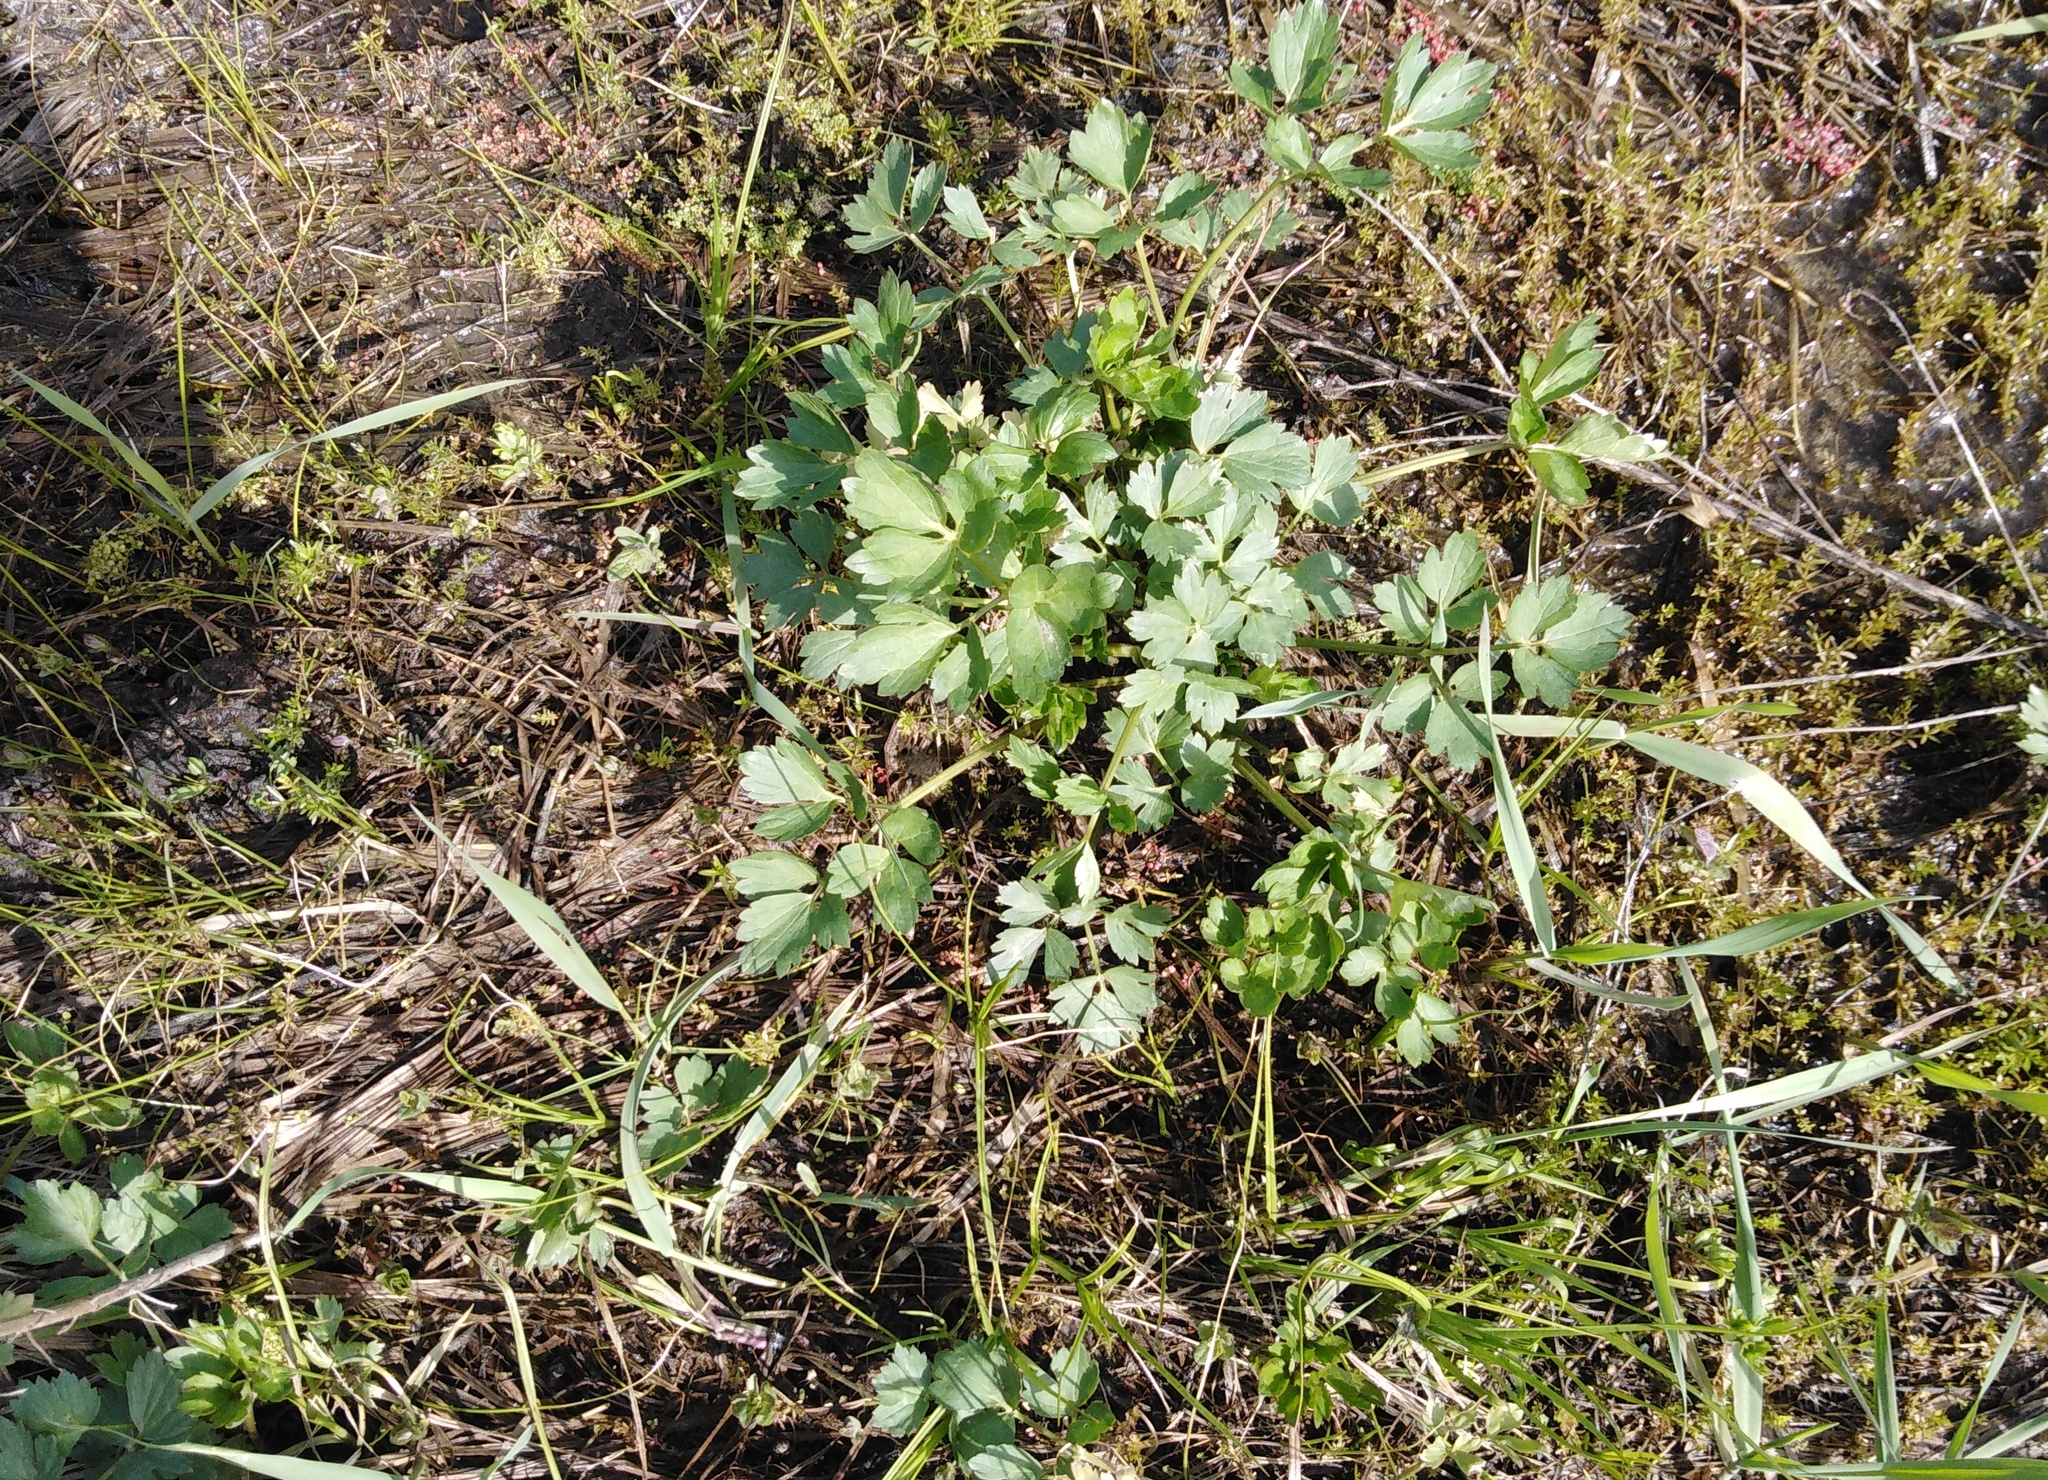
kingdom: Plantae
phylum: Tracheophyta
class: Magnoliopsida
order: Ranunculales
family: Ranunculaceae
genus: Ranunculus
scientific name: Ranunculus repens
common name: Creeping buttercup
